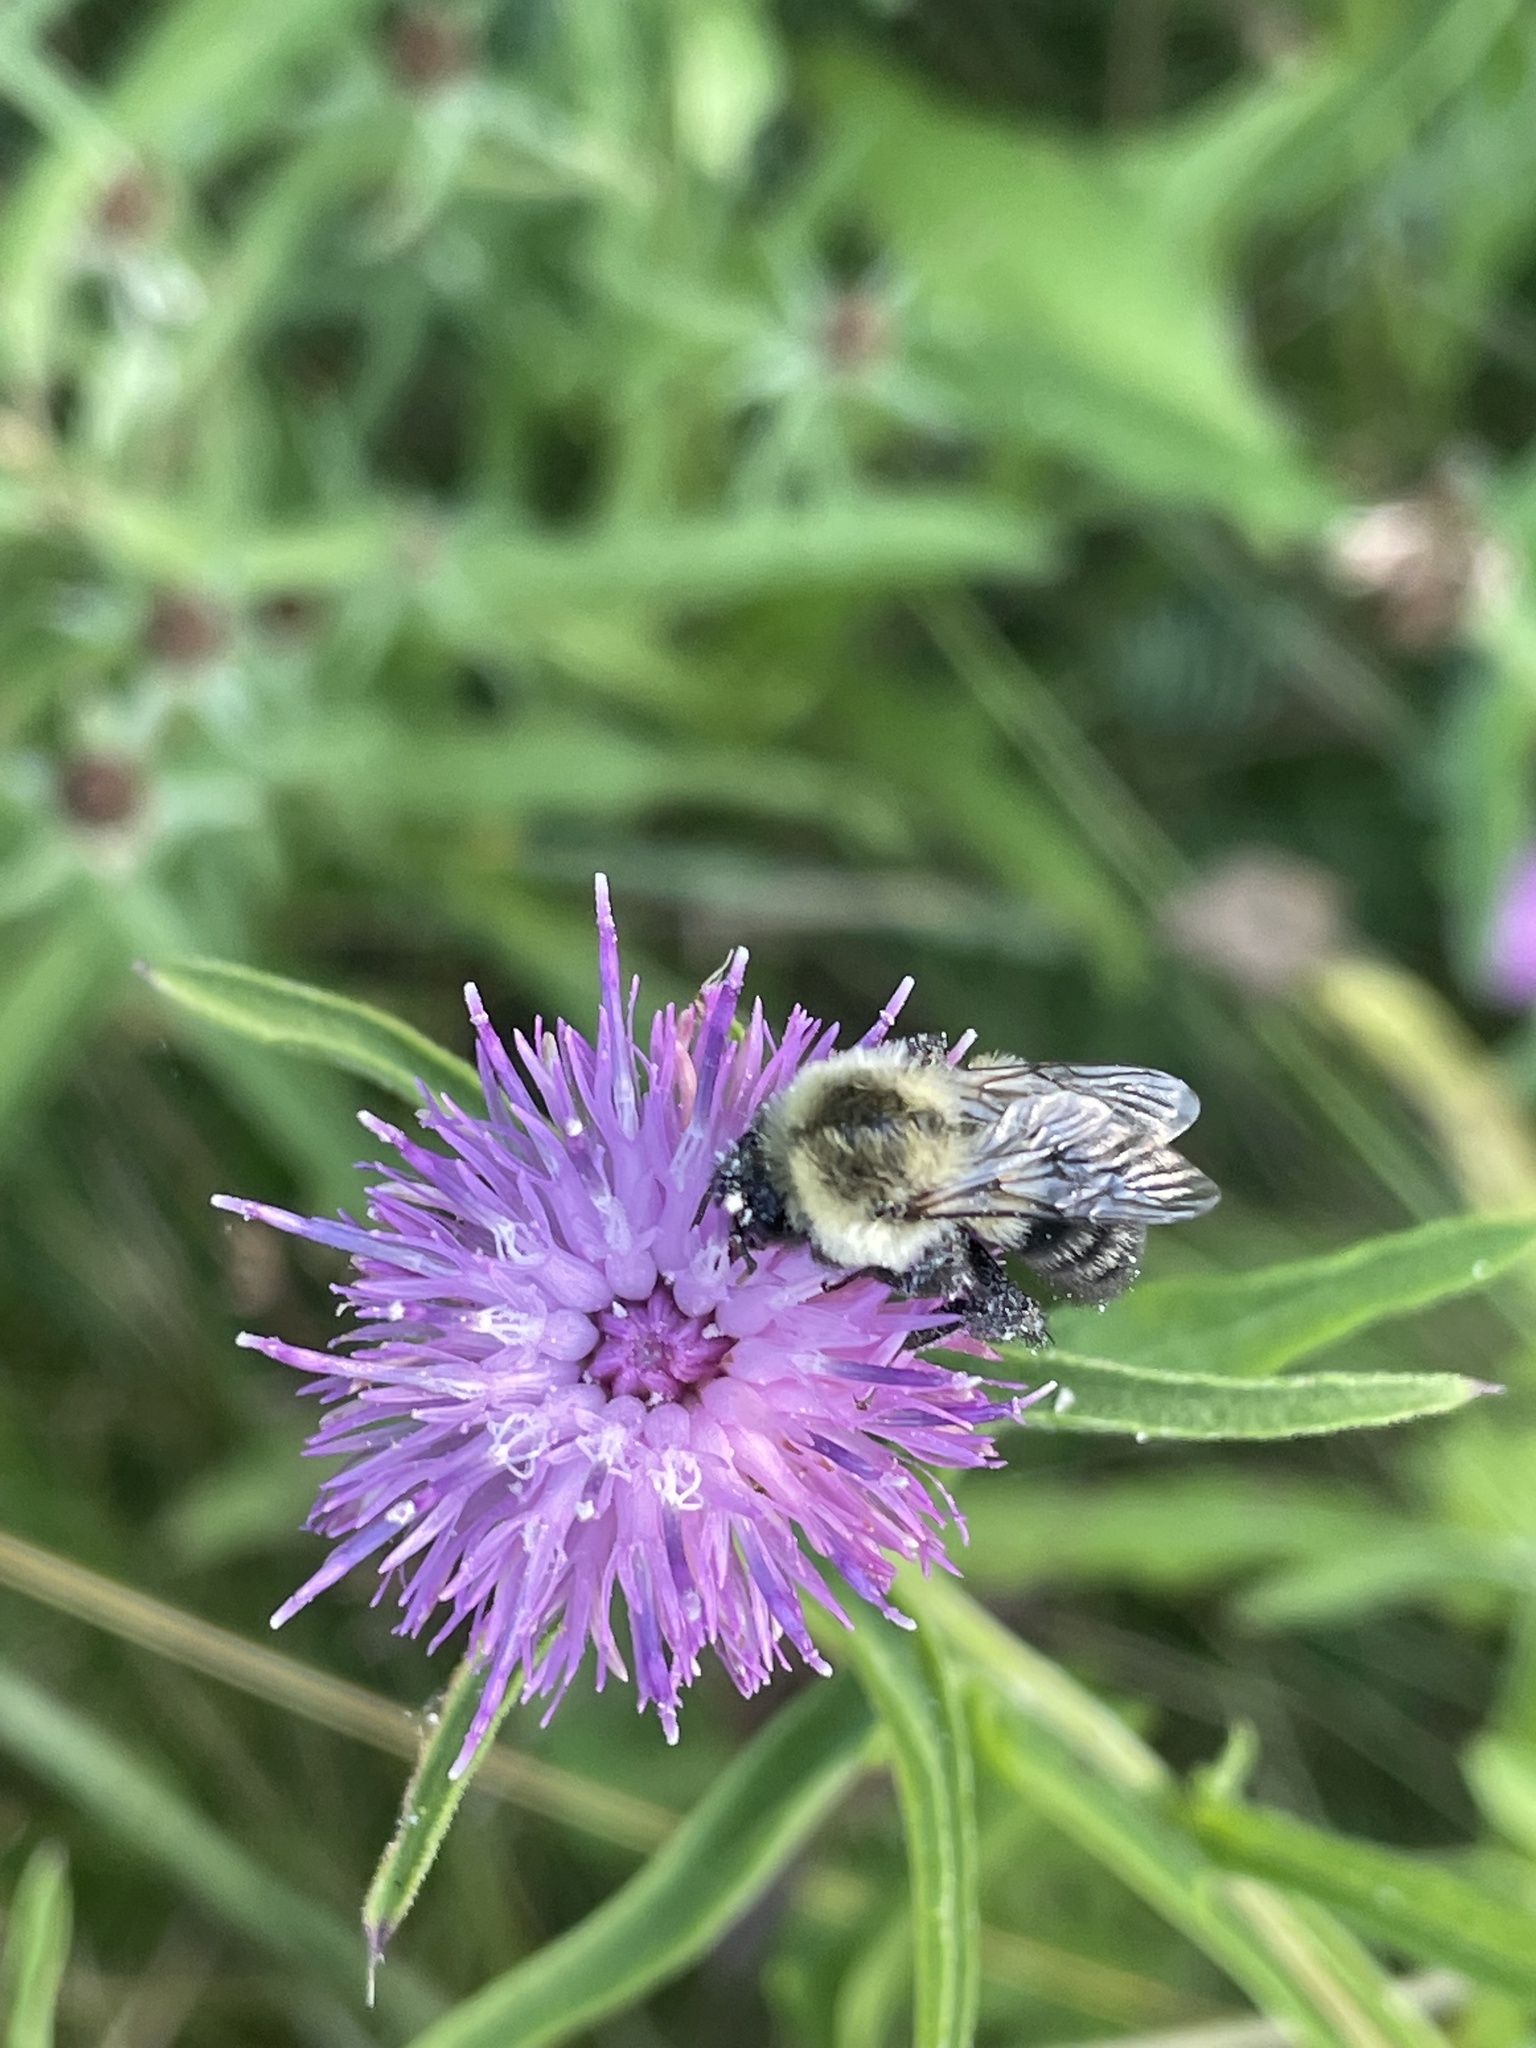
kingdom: Animalia
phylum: Arthropoda
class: Insecta
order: Hymenoptera
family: Apidae
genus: Bombus
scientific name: Bombus impatiens
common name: Common eastern bumble bee
